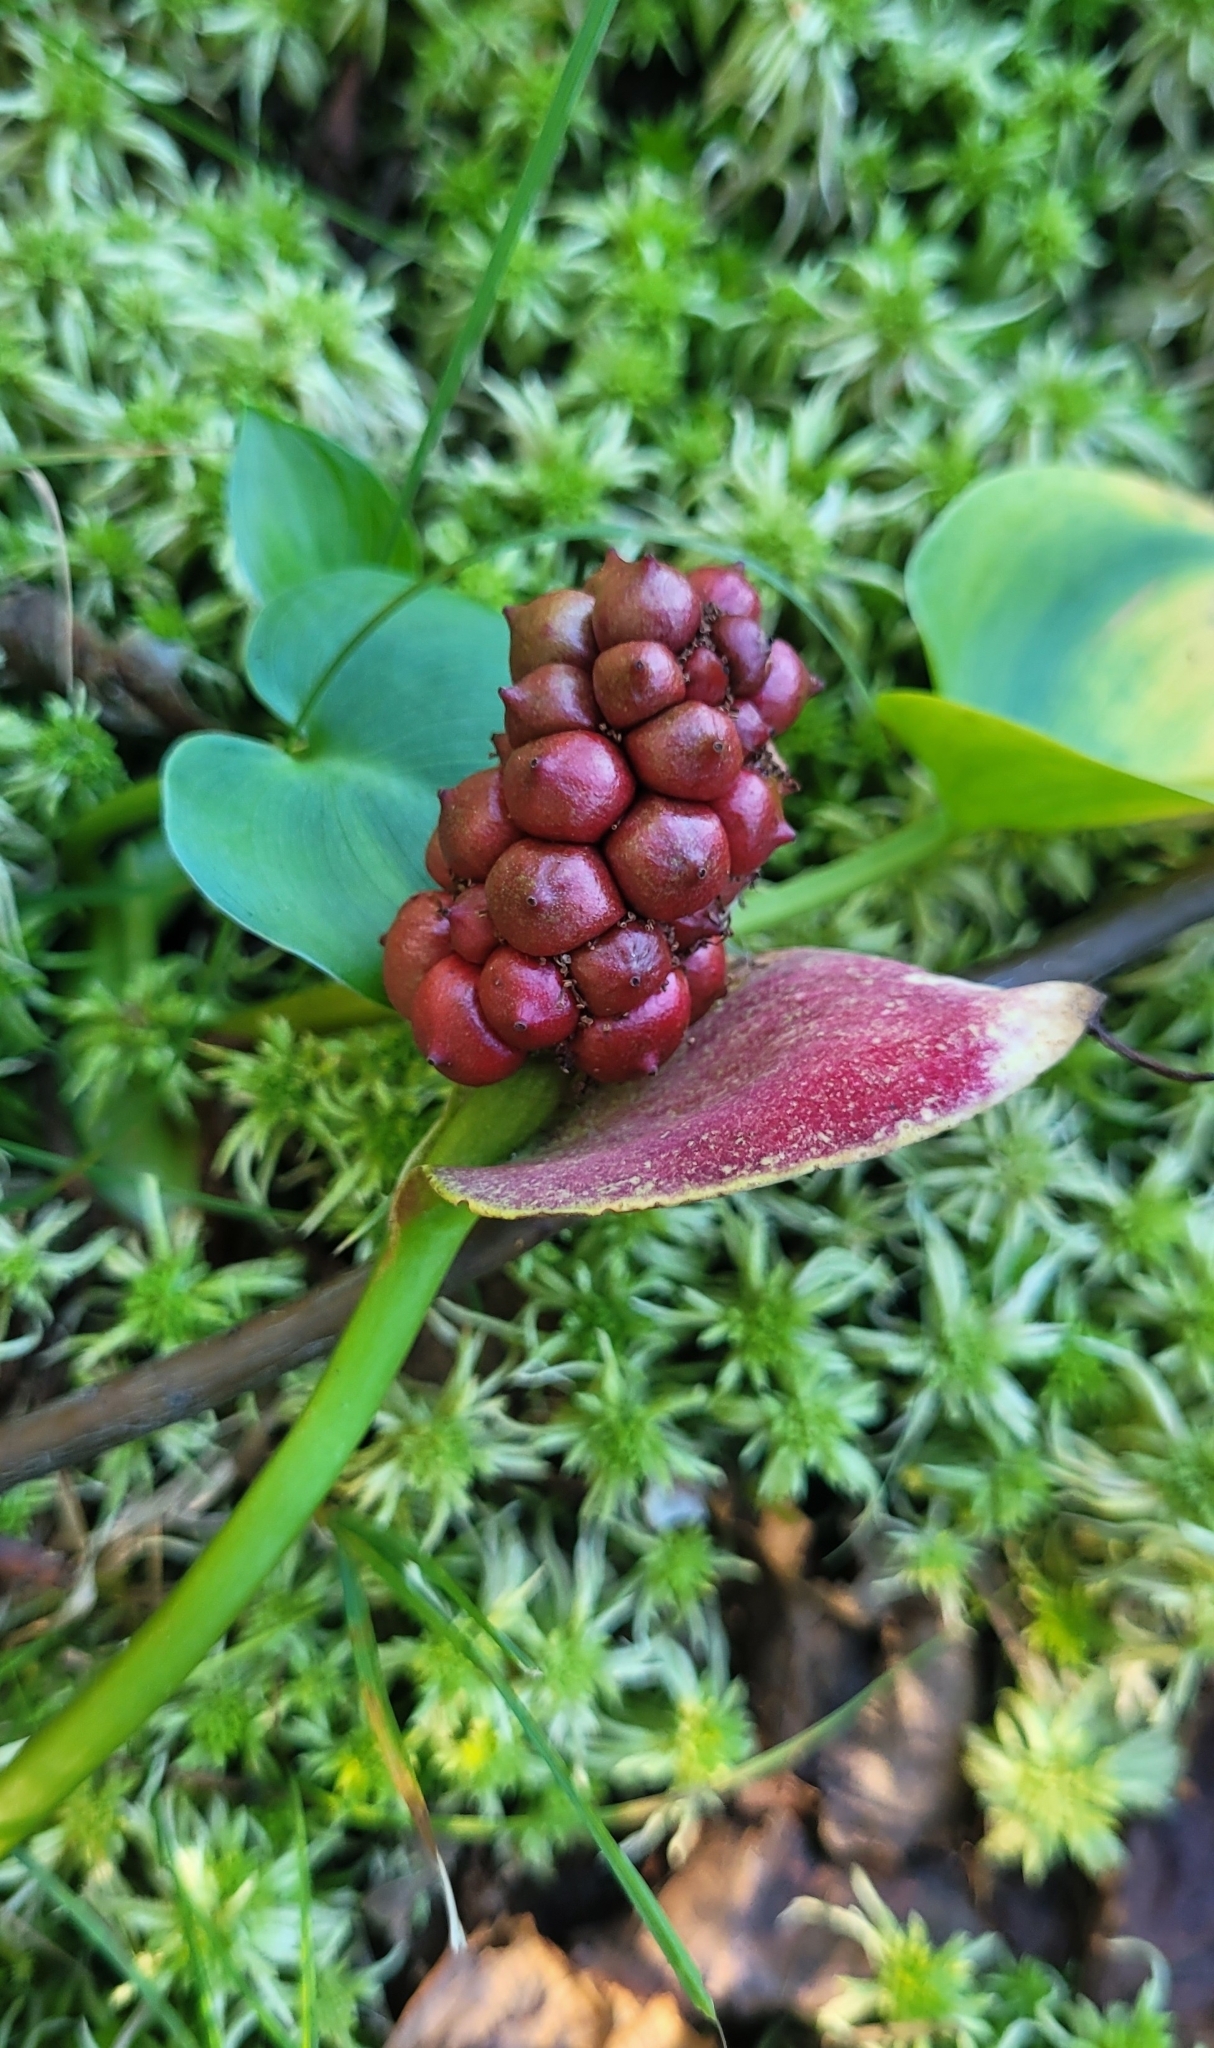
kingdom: Plantae
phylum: Tracheophyta
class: Liliopsida
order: Alismatales
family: Araceae
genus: Calla
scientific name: Calla palustris
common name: Bog arum
